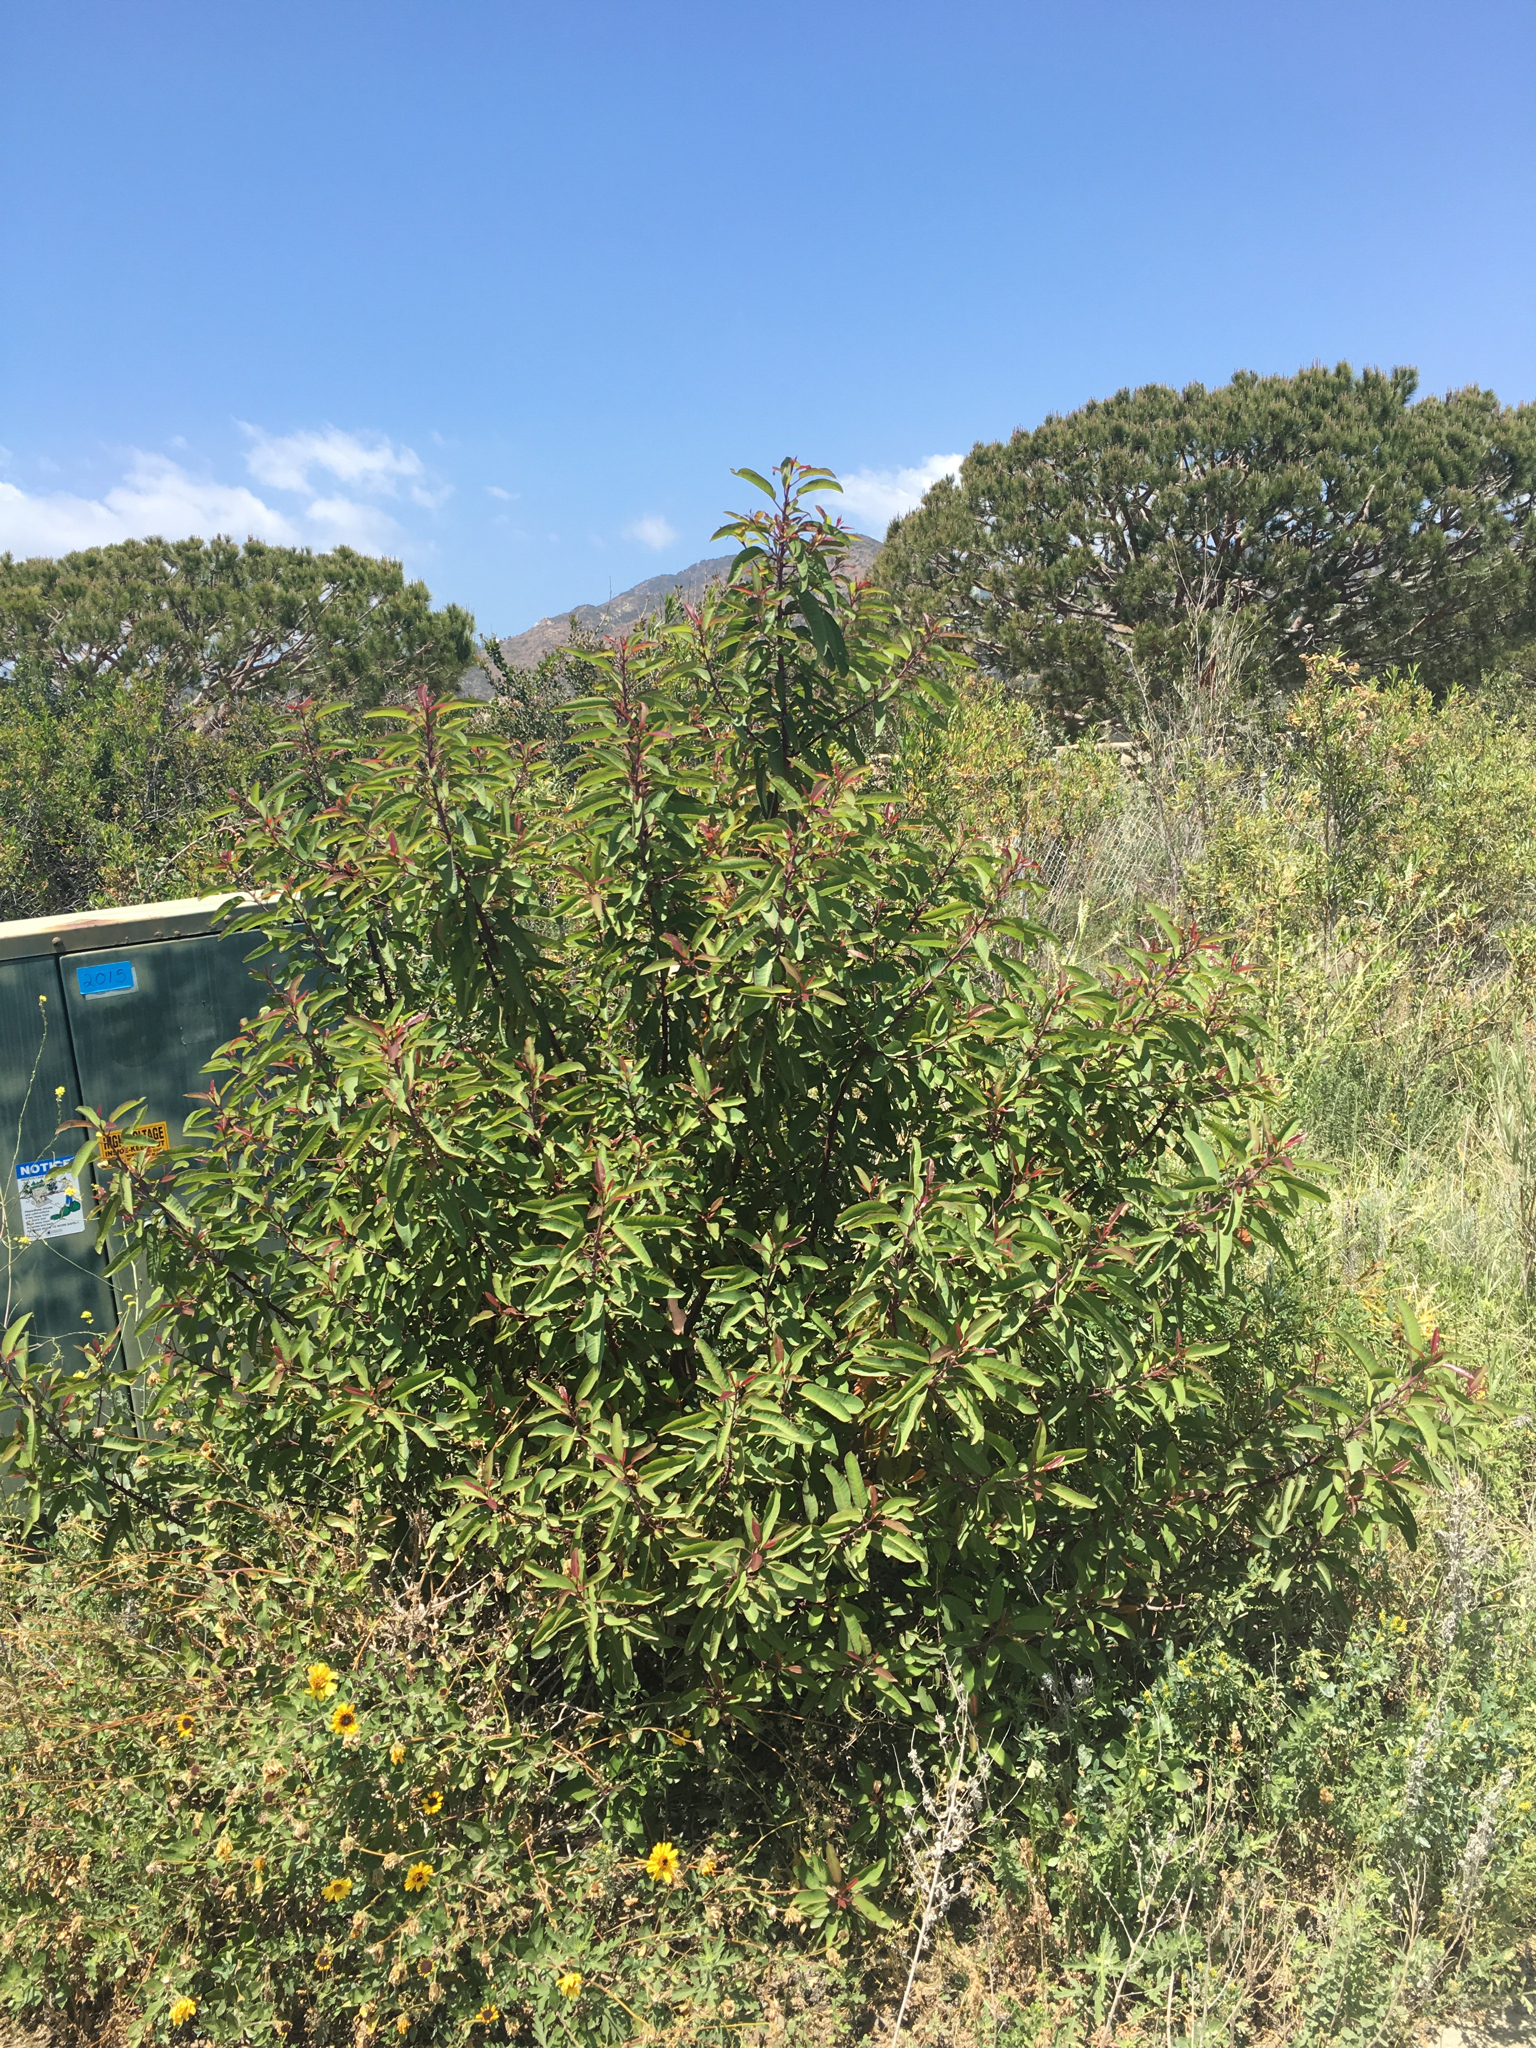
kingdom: Plantae
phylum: Tracheophyta
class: Magnoliopsida
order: Sapindales
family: Anacardiaceae
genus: Malosma
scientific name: Malosma laurina
